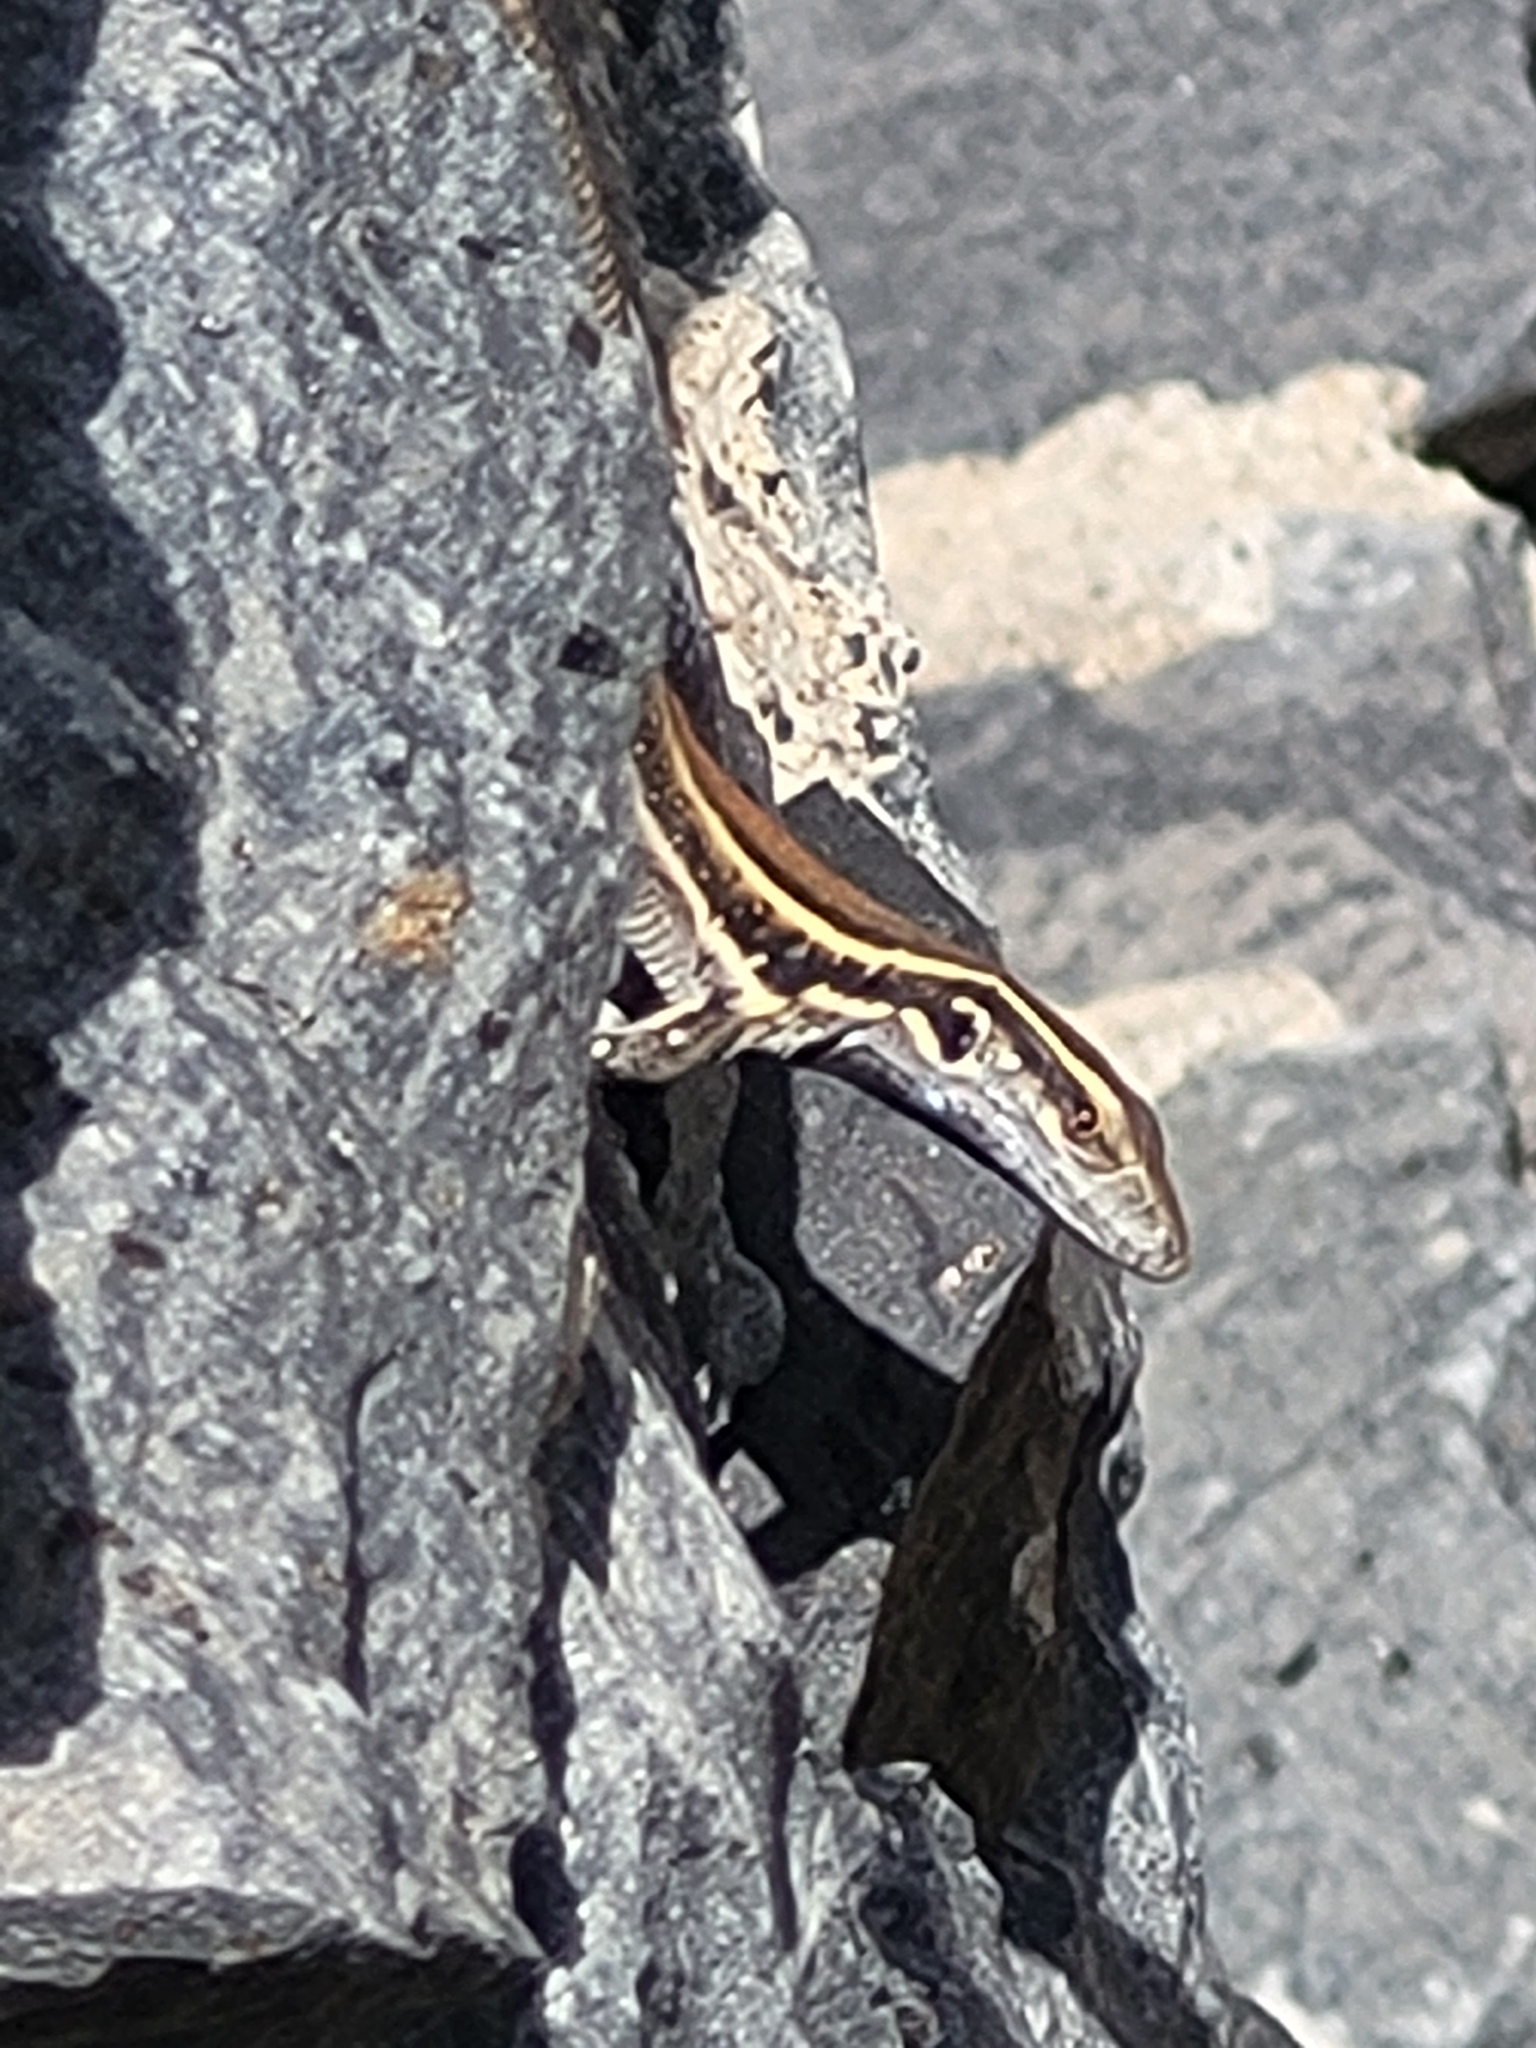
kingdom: Animalia
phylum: Chordata
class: Squamata
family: Lacertidae
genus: Gallotia
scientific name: Gallotia caesaris
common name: Boettger's lizard
